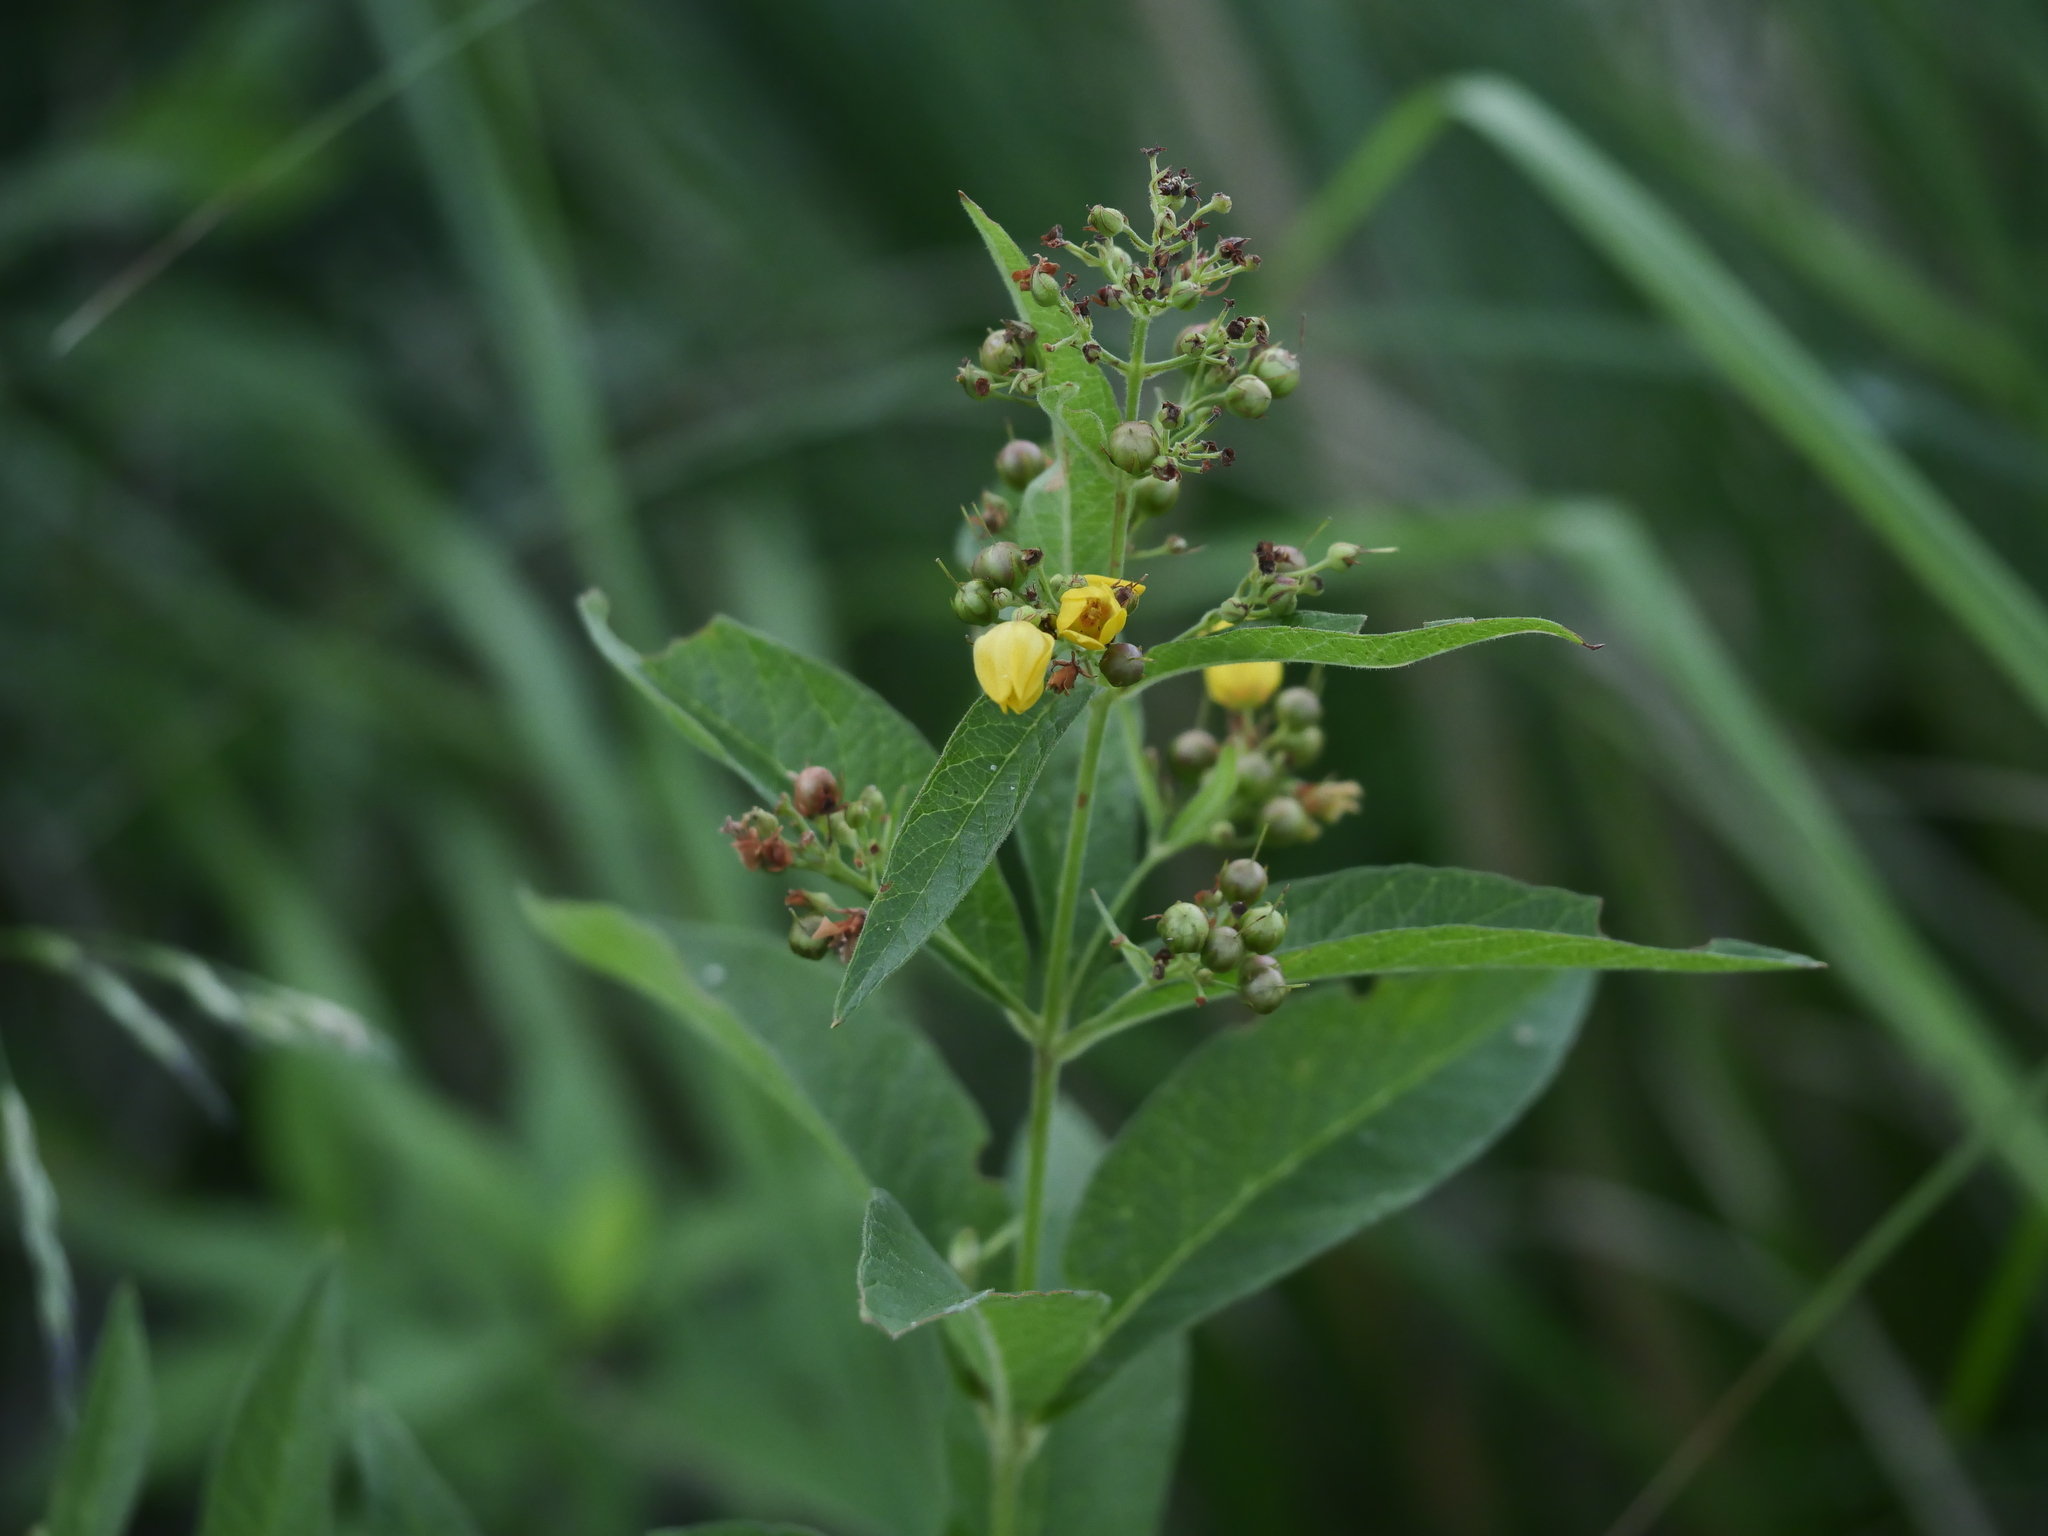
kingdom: Plantae
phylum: Tracheophyta
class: Magnoliopsida
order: Ericales
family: Primulaceae
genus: Lysimachia
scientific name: Lysimachia vulgaris
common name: Yellow loosestrife
